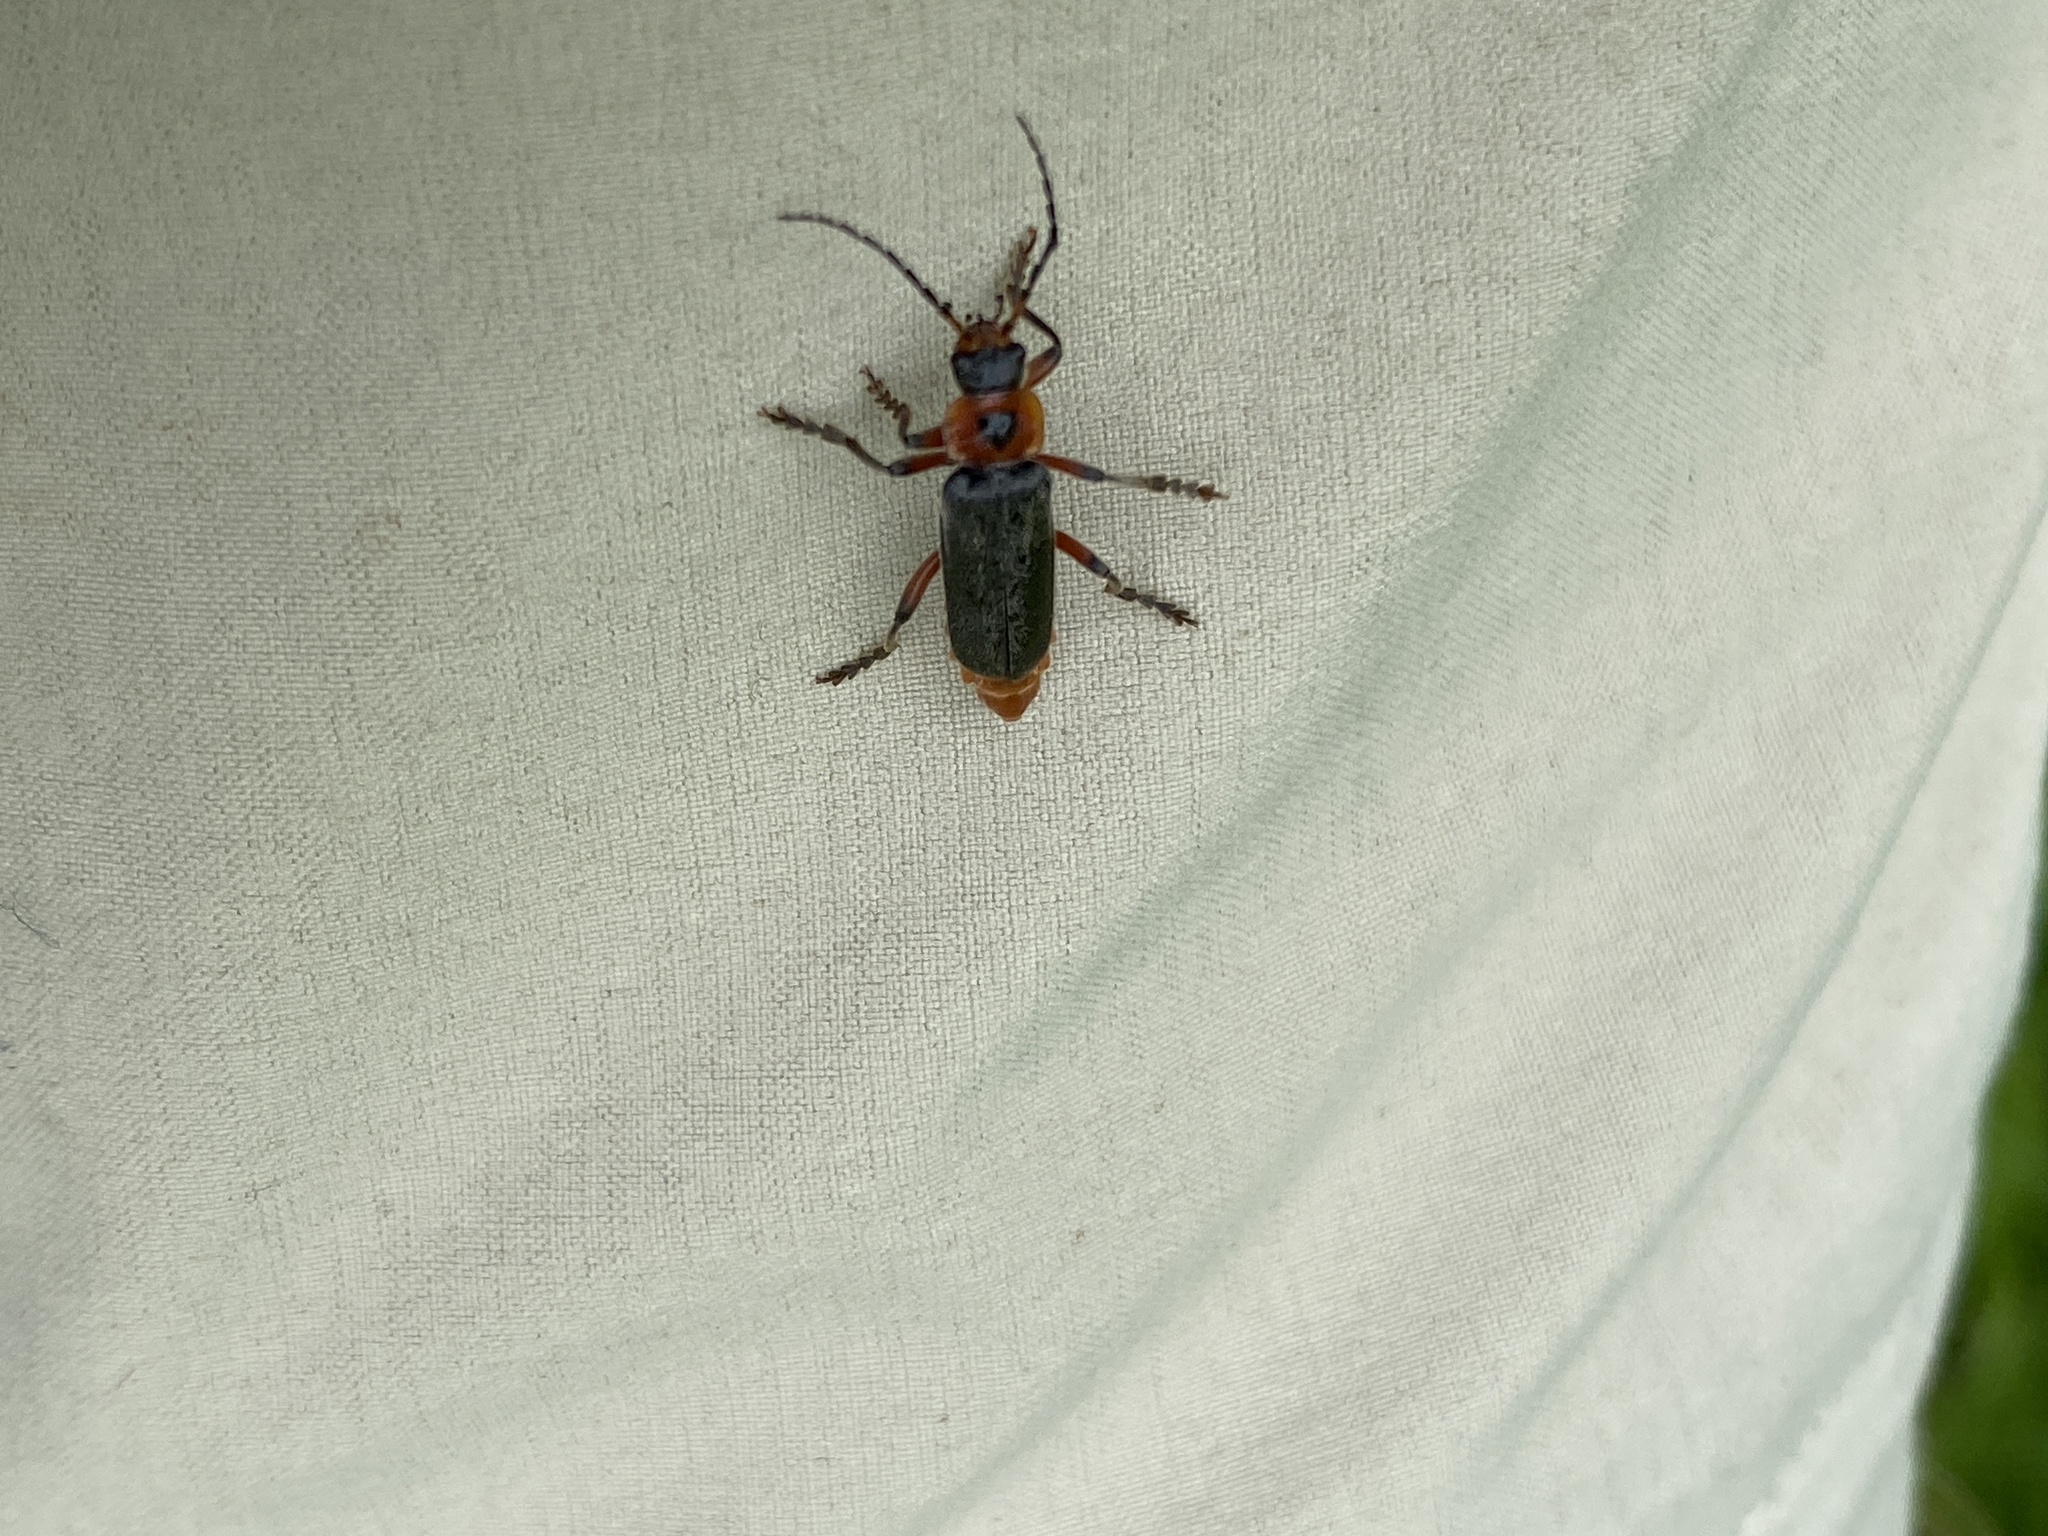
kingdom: Animalia
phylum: Arthropoda
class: Insecta
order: Coleoptera
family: Cantharidae
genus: Cantharis
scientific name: Cantharis rustica
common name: Soldier beetle
